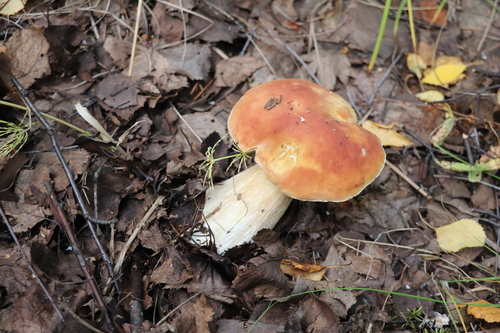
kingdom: Fungi
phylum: Basidiomycota
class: Agaricomycetes
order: Boletales
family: Boletaceae
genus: Boletus
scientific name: Boletus edulis
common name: Cep
